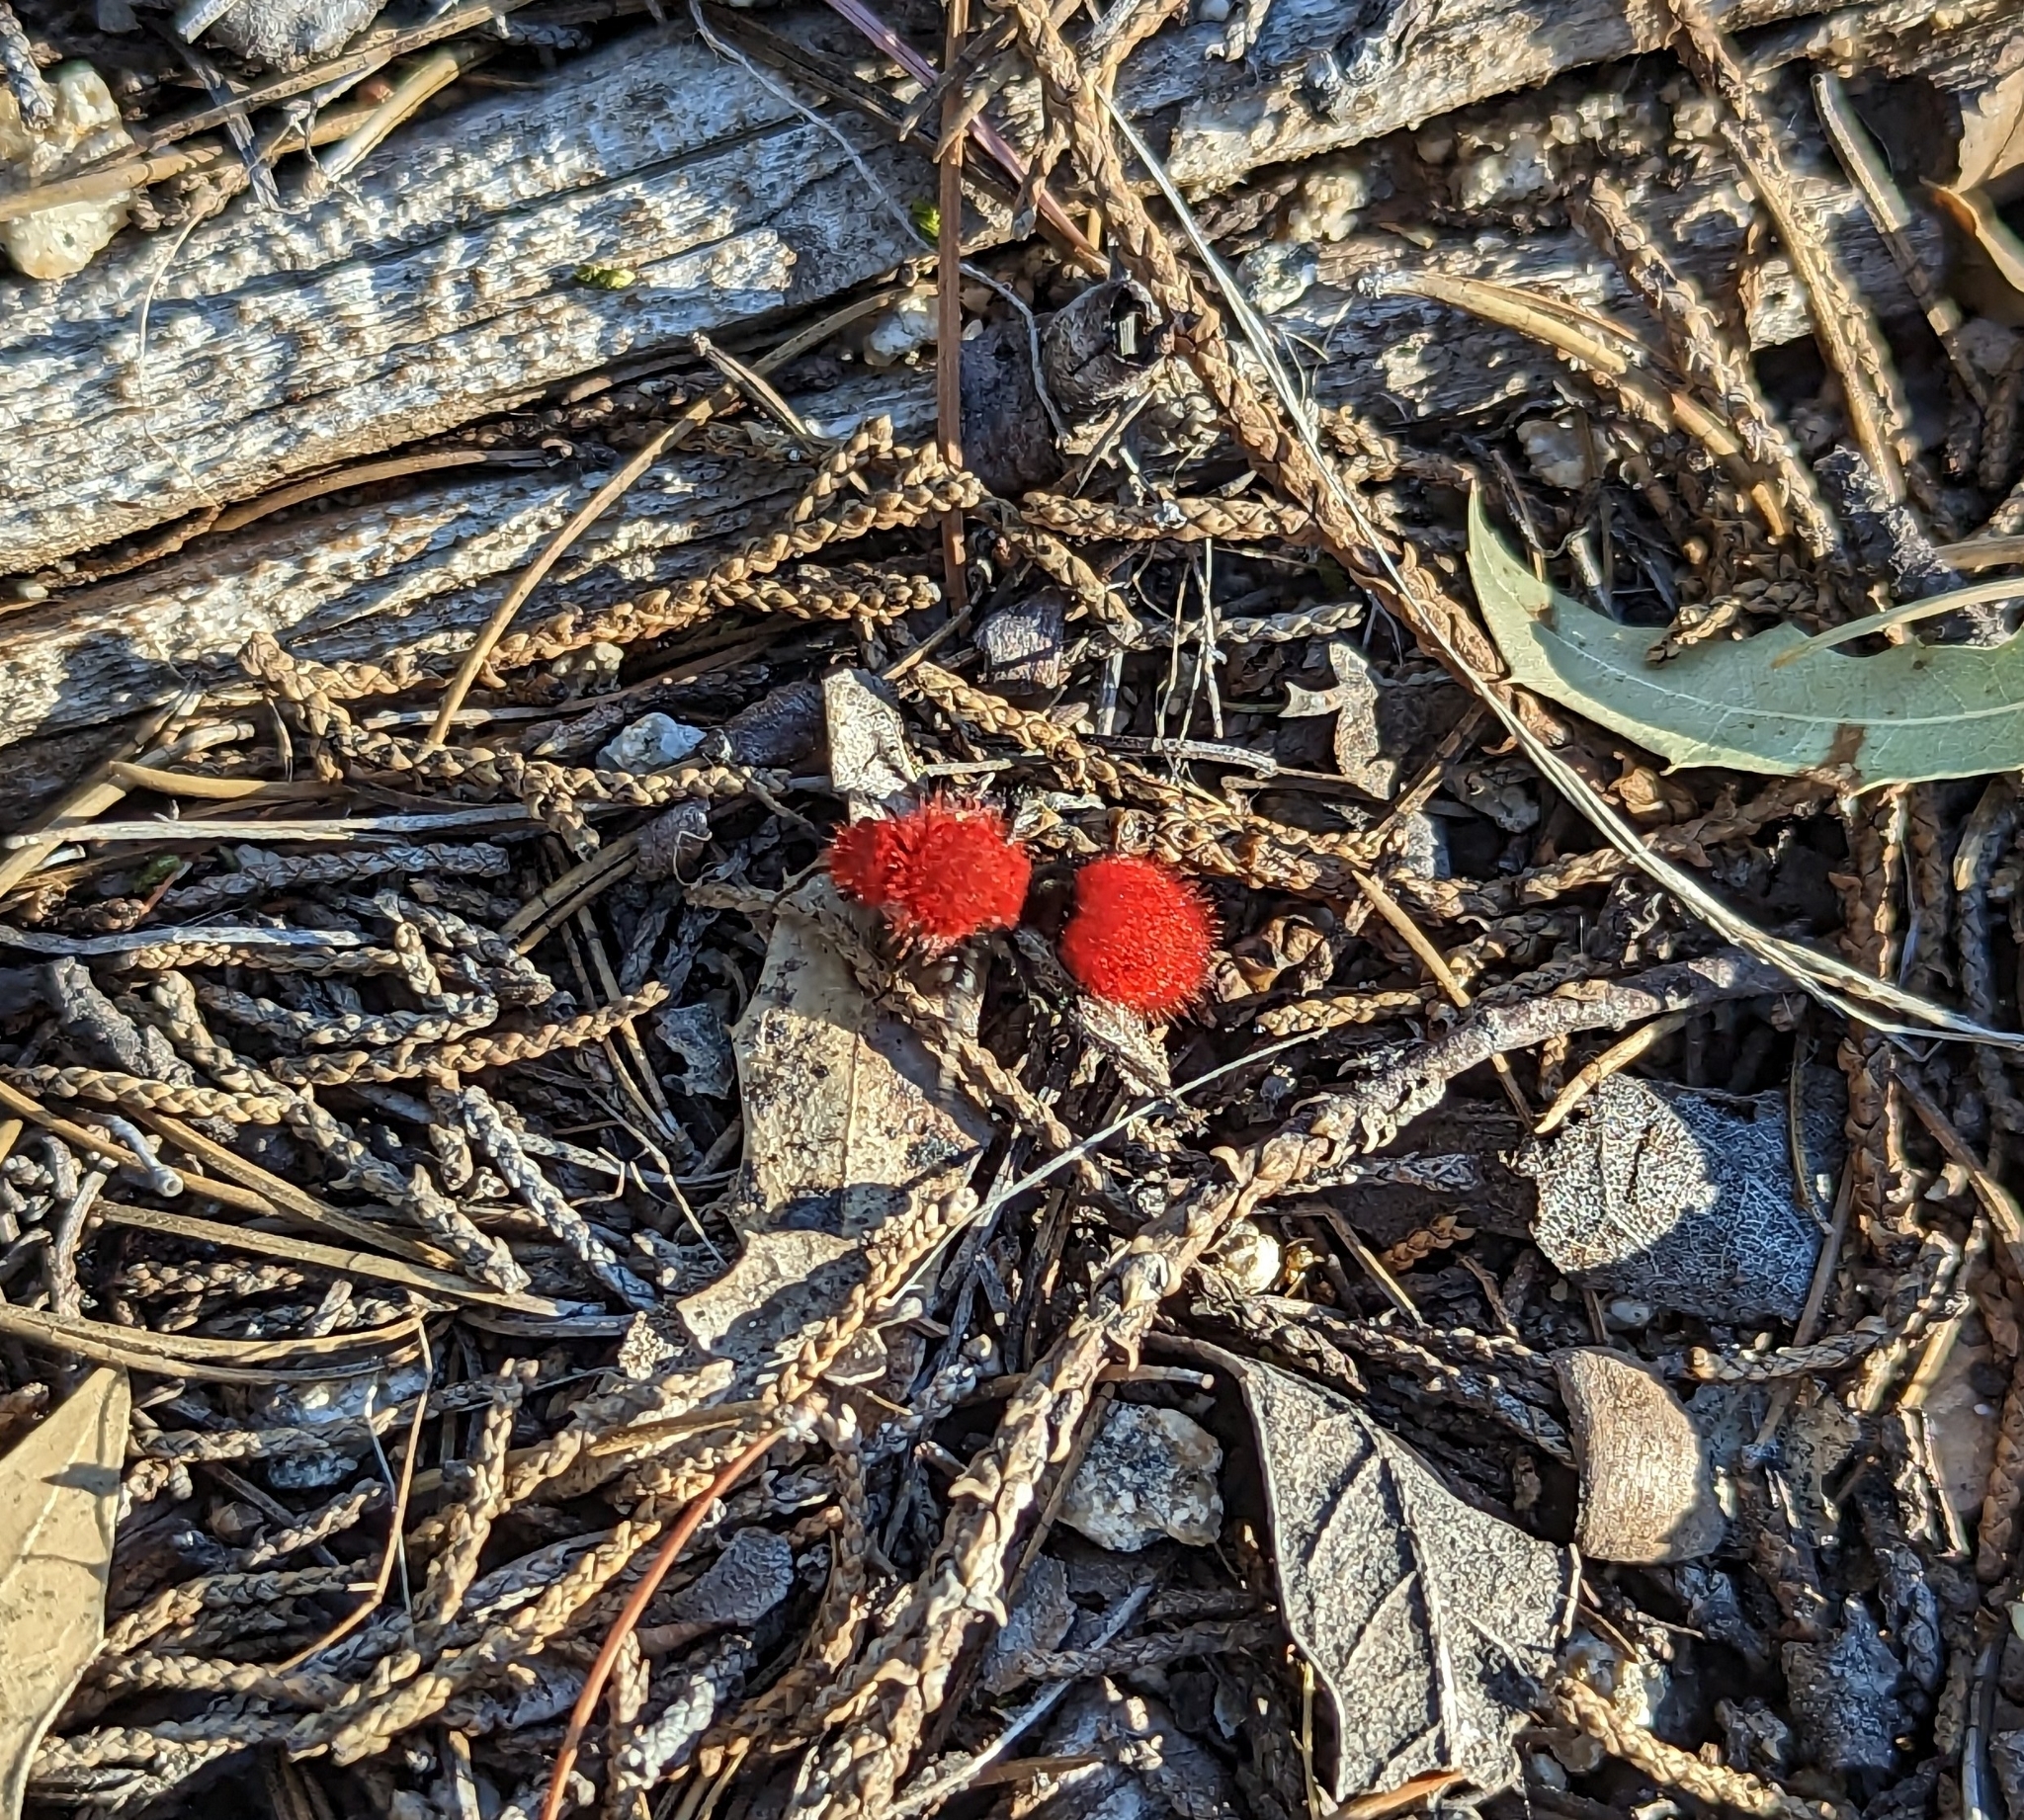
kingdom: Animalia
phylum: Arthropoda
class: Insecta
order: Hymenoptera
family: Mutillidae
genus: Dasymutilla
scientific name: Dasymutilla
